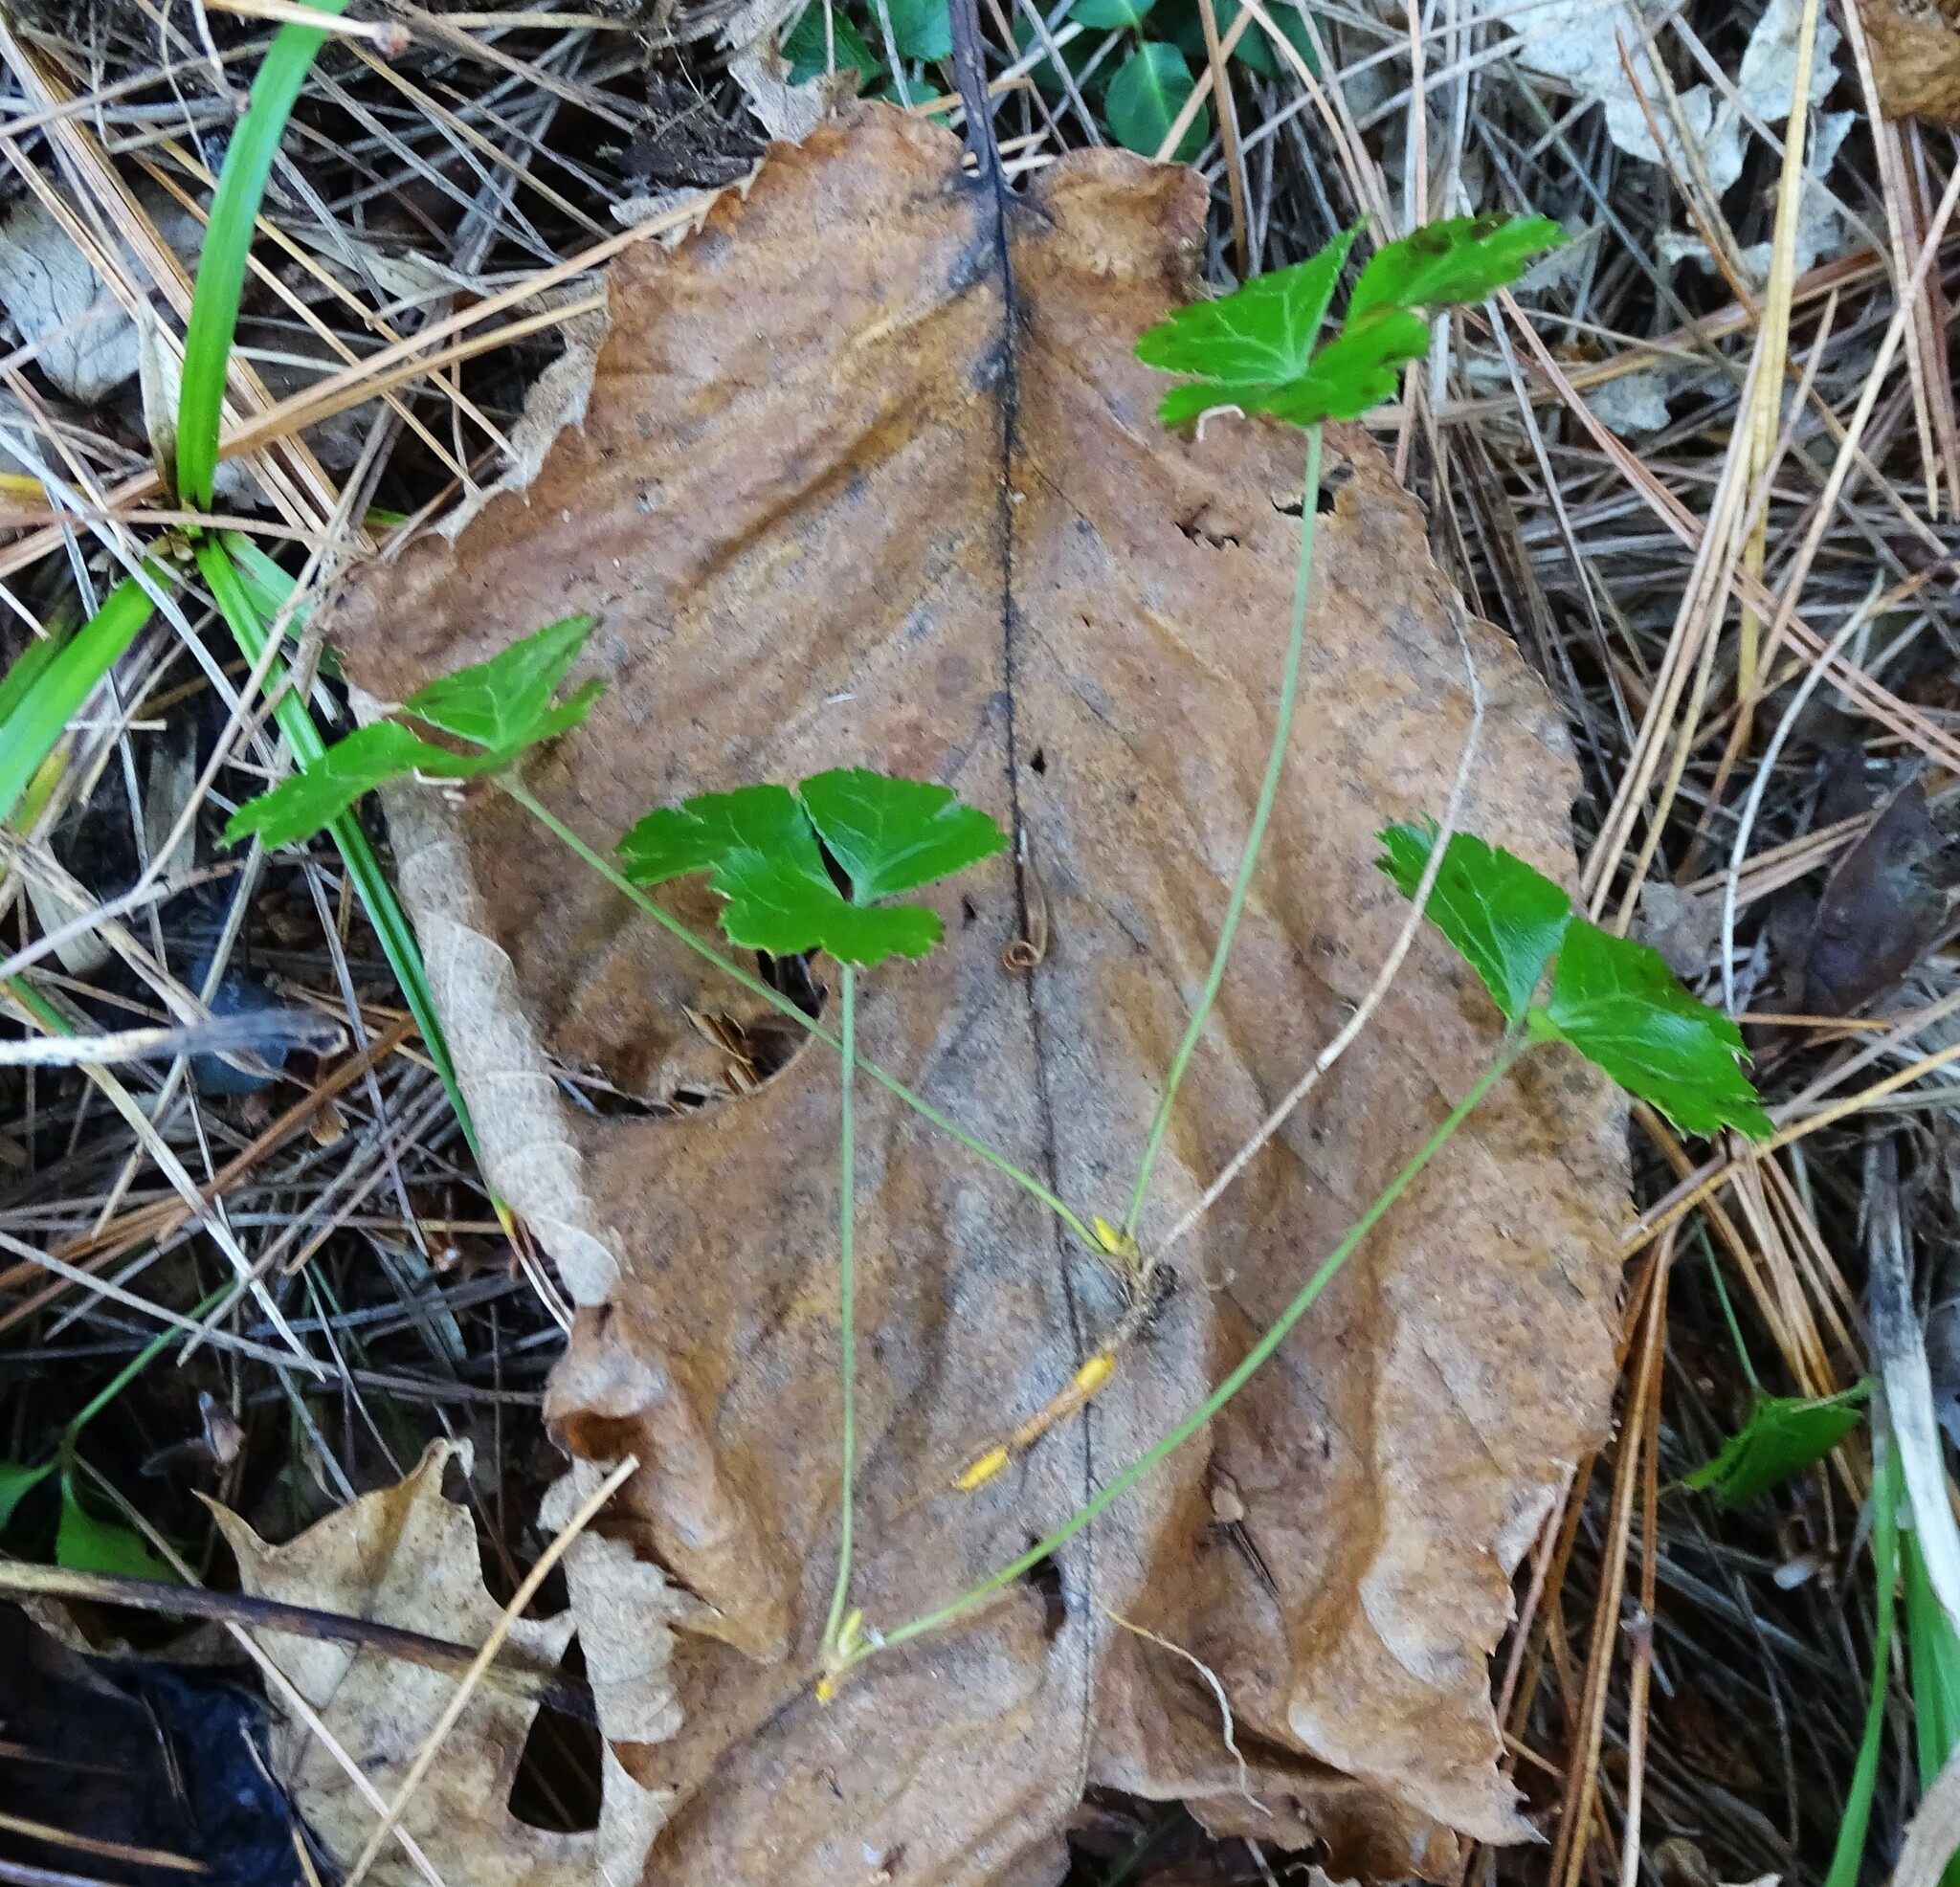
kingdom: Plantae
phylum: Tracheophyta
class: Magnoliopsida
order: Ranunculales
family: Ranunculaceae
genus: Coptis
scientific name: Coptis trifolia
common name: Canker-root
